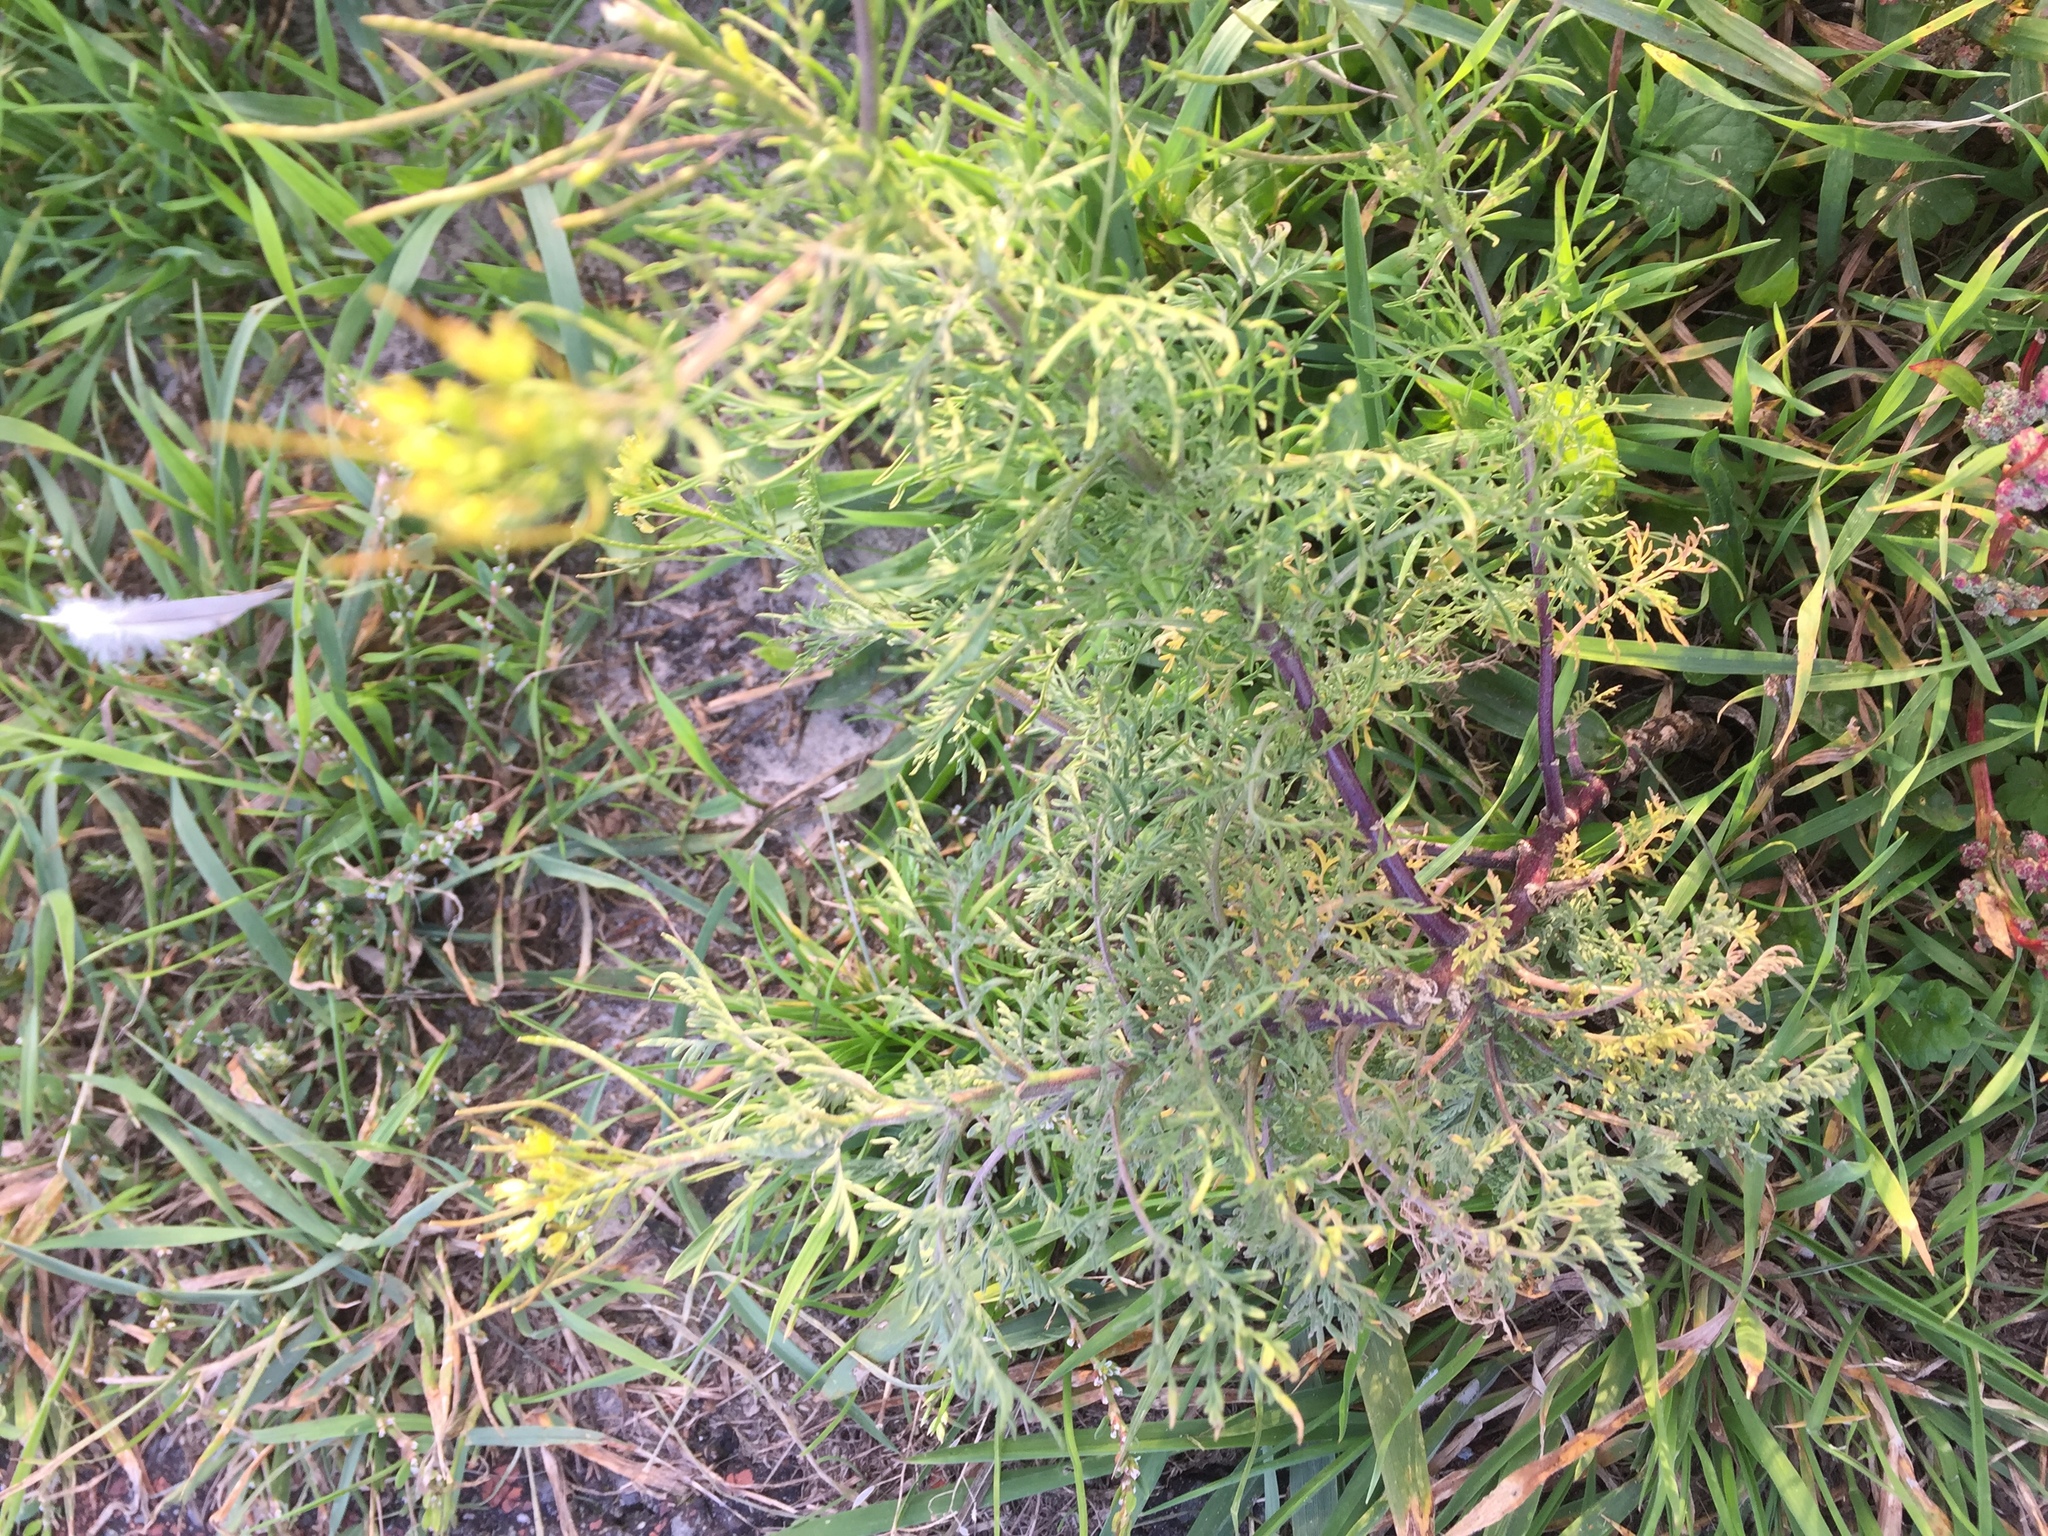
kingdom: Plantae
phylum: Tracheophyta
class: Magnoliopsida
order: Brassicales
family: Brassicaceae
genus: Descurainia
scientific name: Descurainia sophia
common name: Flixweed
